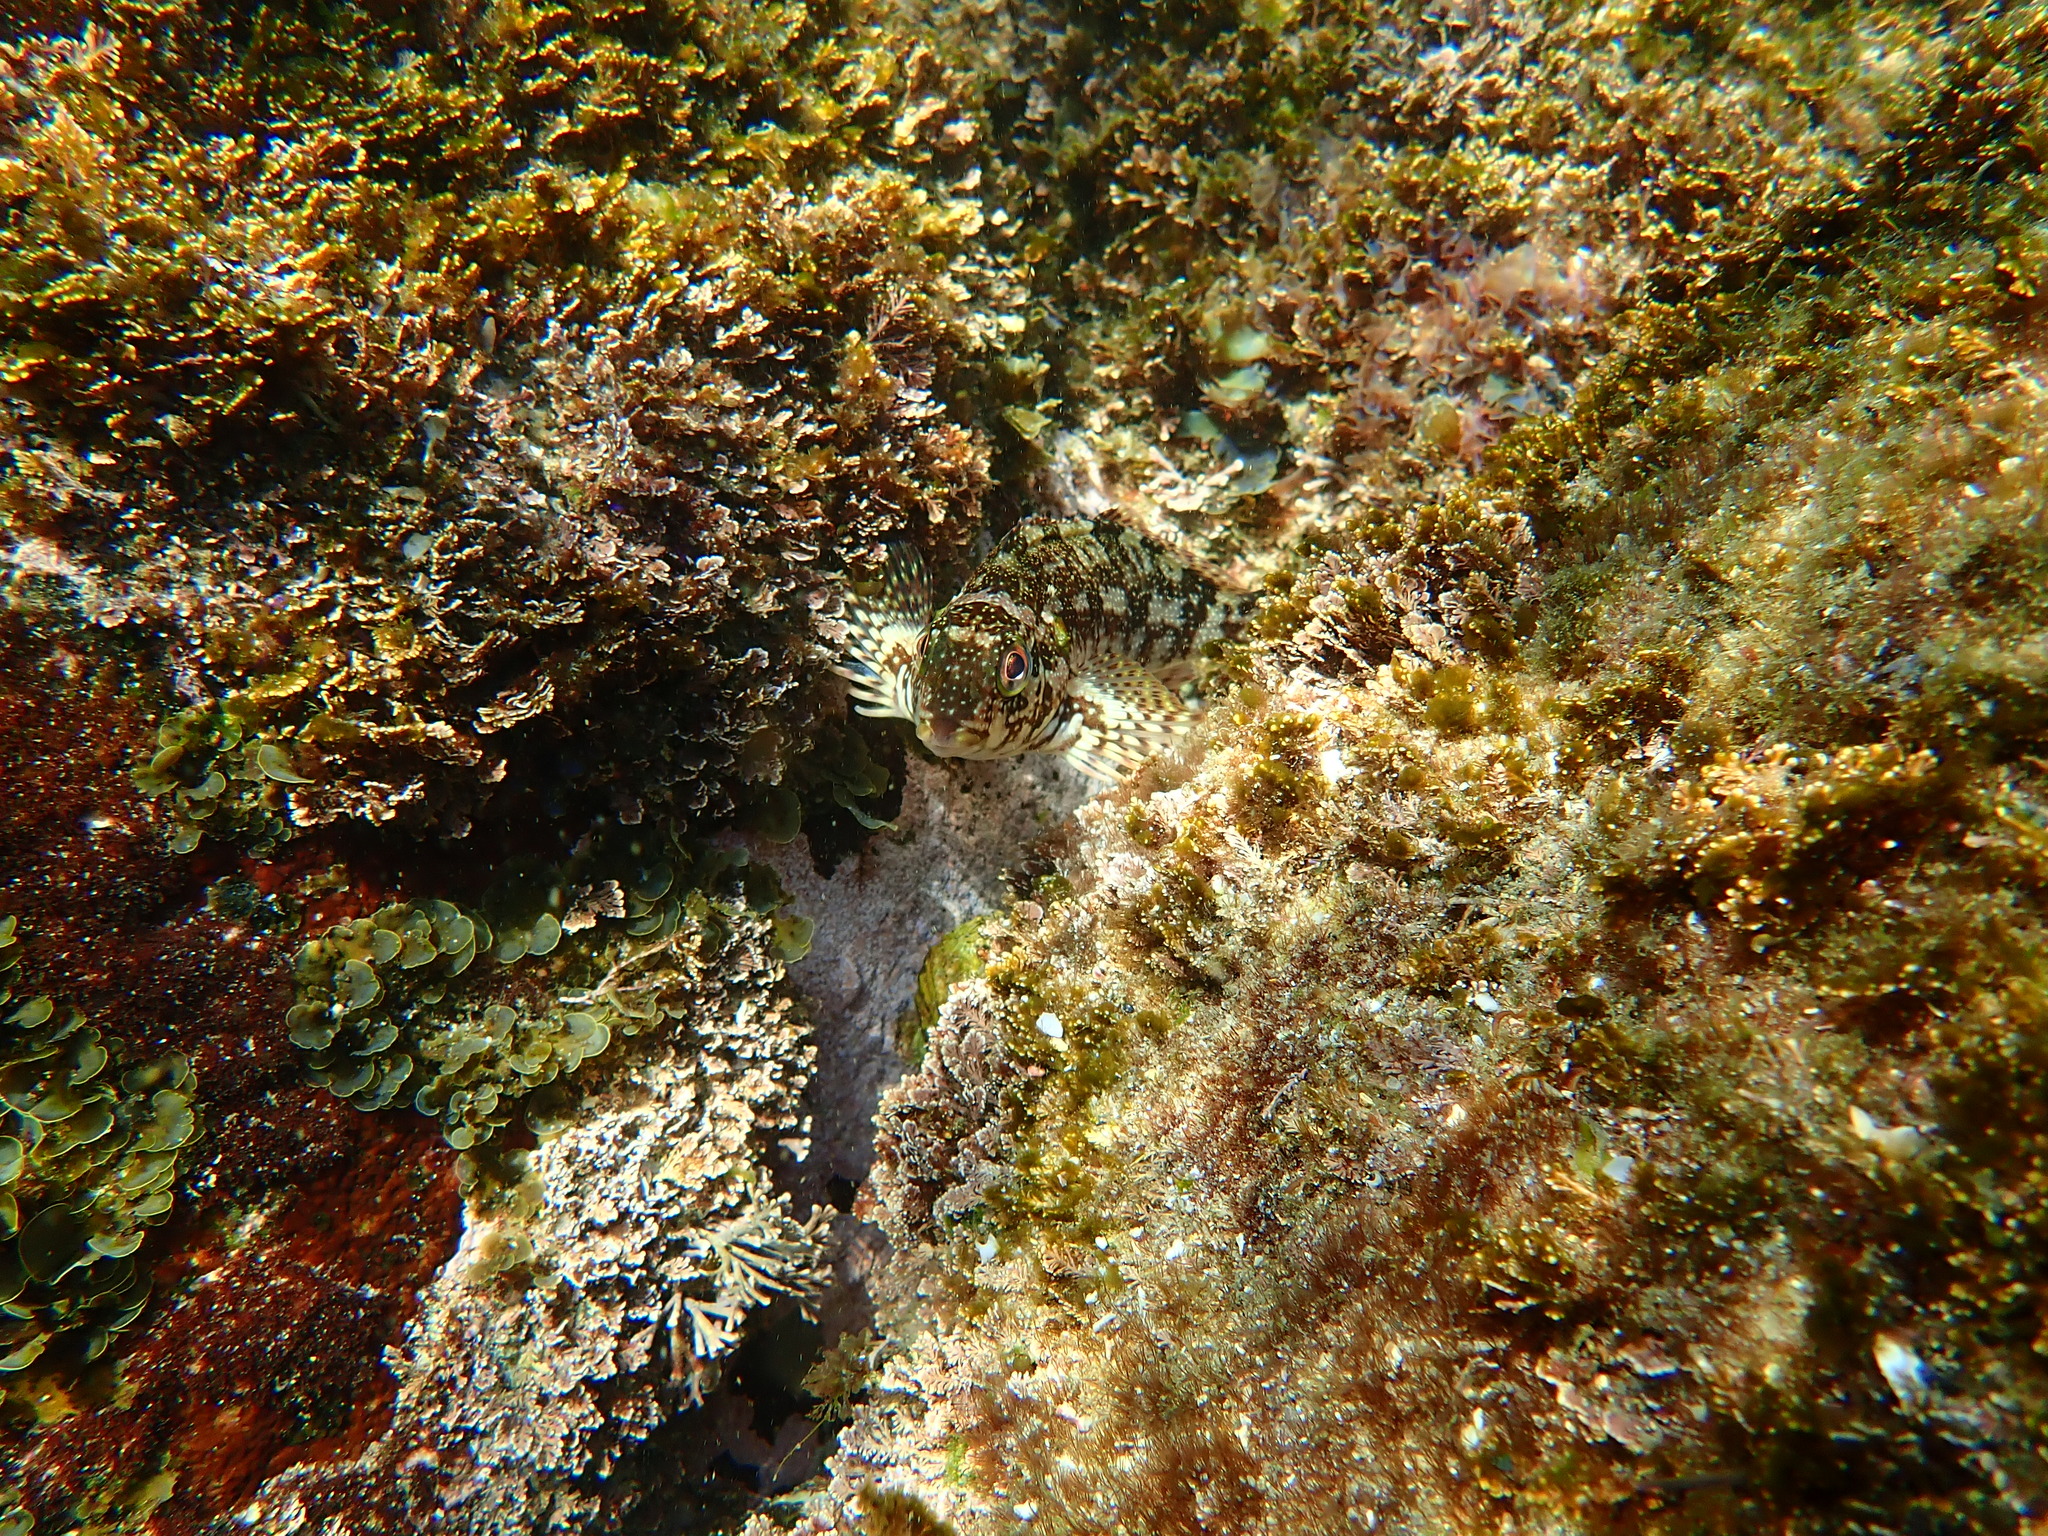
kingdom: Animalia
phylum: Chordata
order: Perciformes
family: Chironemidae
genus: Chironemus
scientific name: Chironemus marmoratus
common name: Kelpfish
